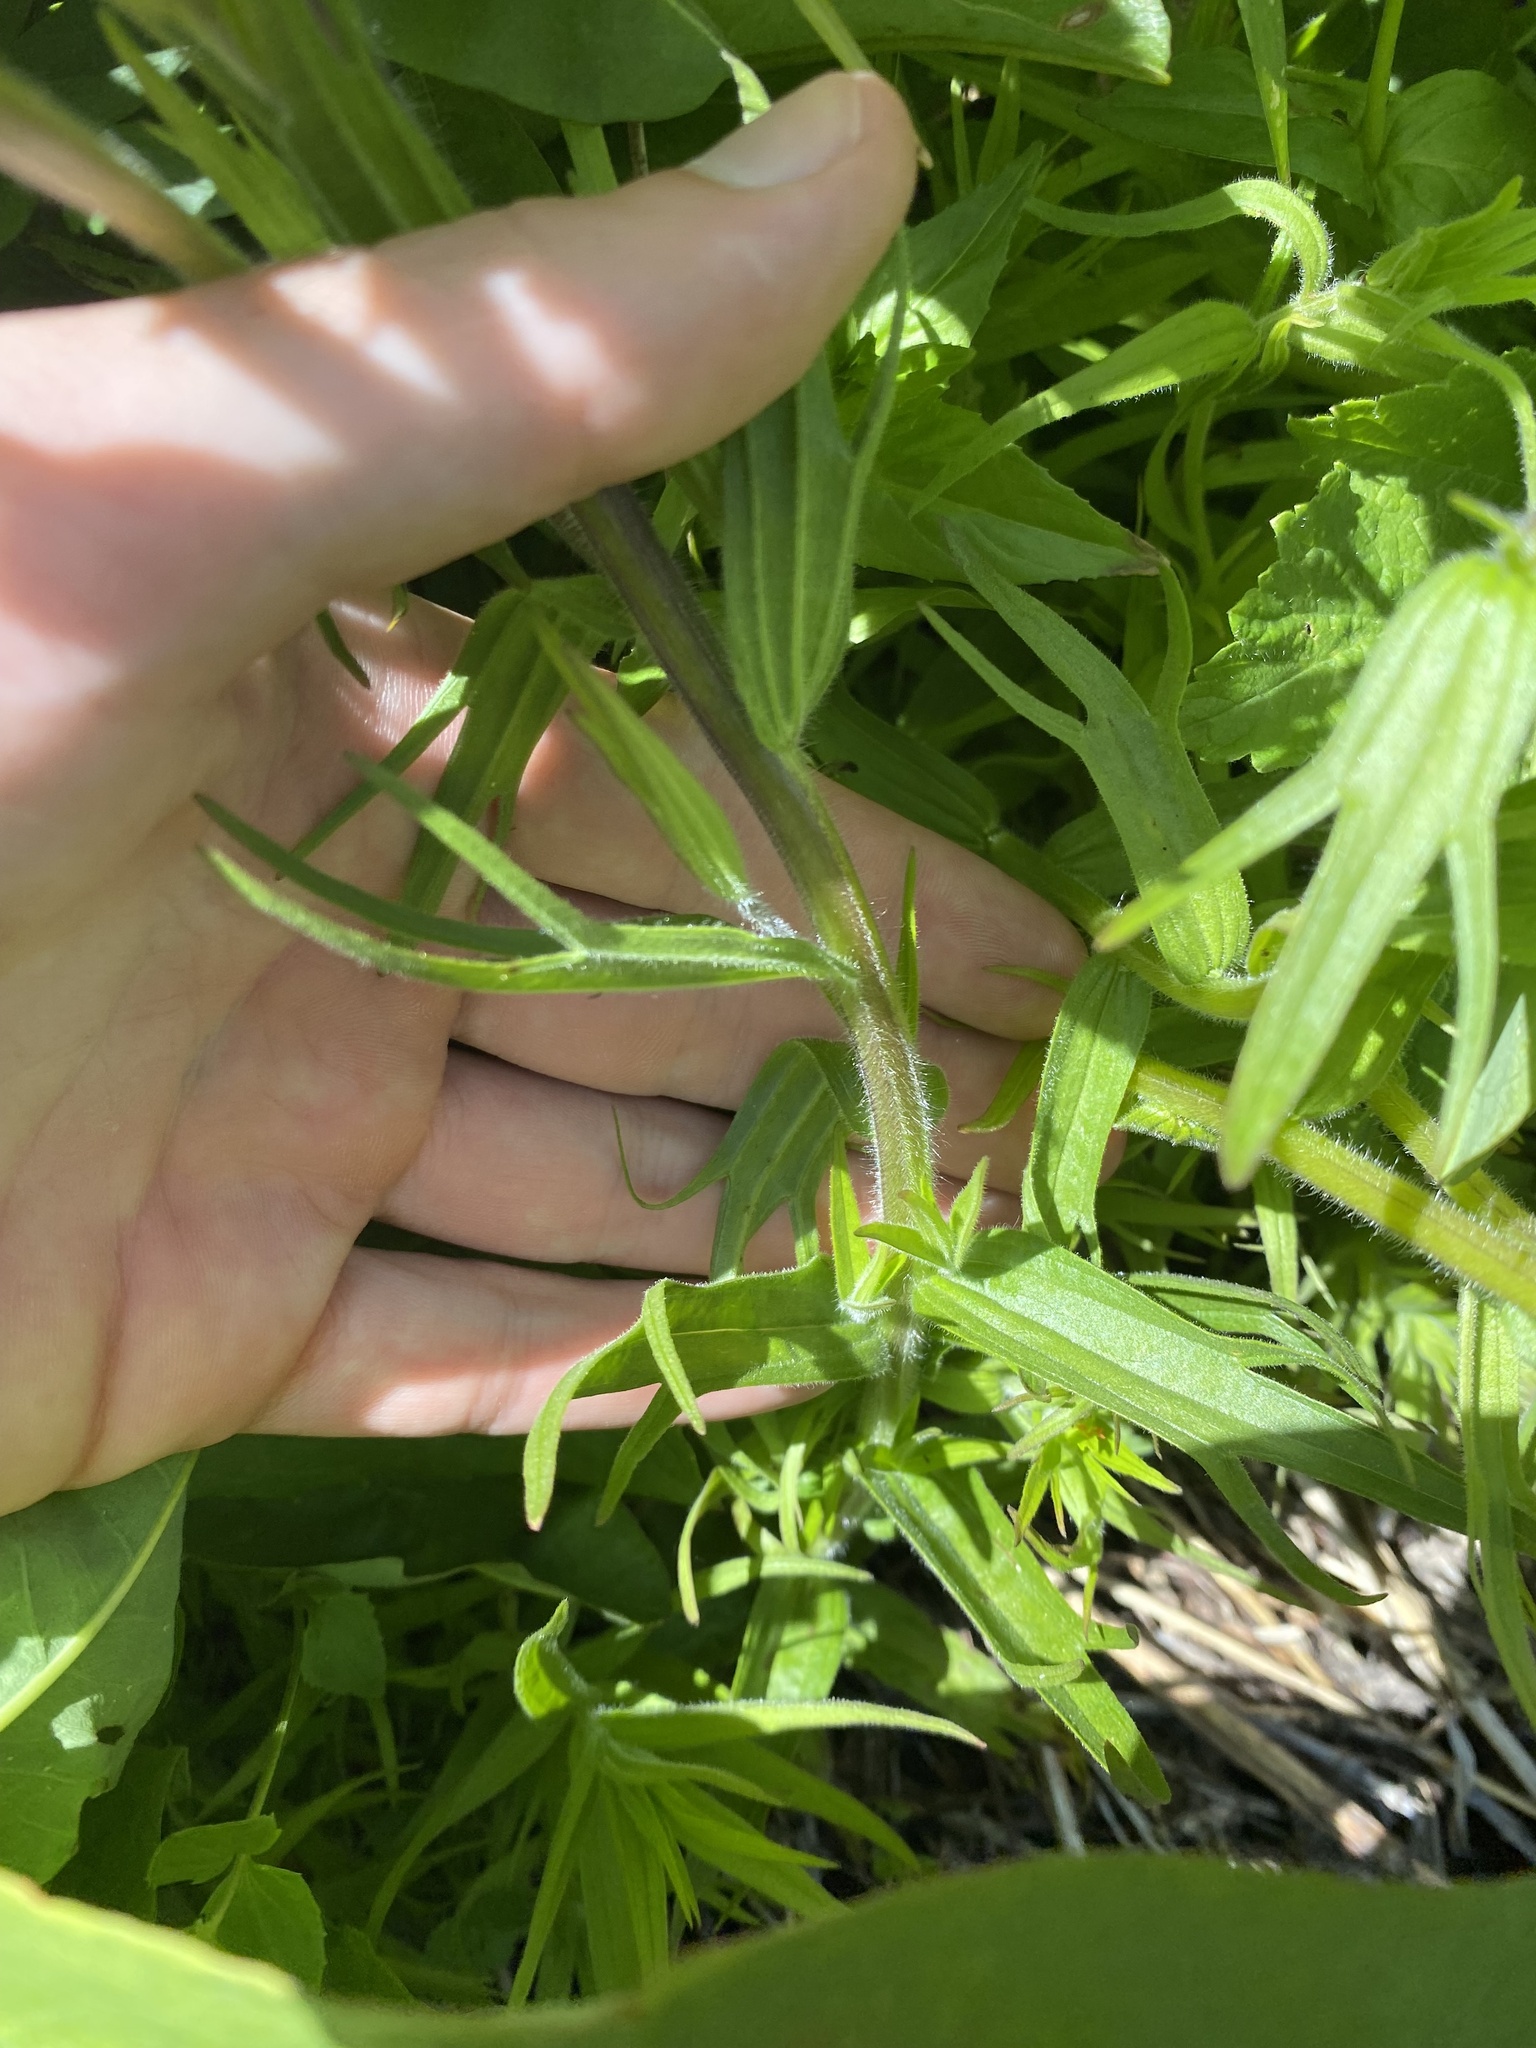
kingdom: Plantae
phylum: Tracheophyta
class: Magnoliopsida
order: Lamiales
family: Orobanchaceae
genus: Castilleja
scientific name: Castilleja suksdorfii
